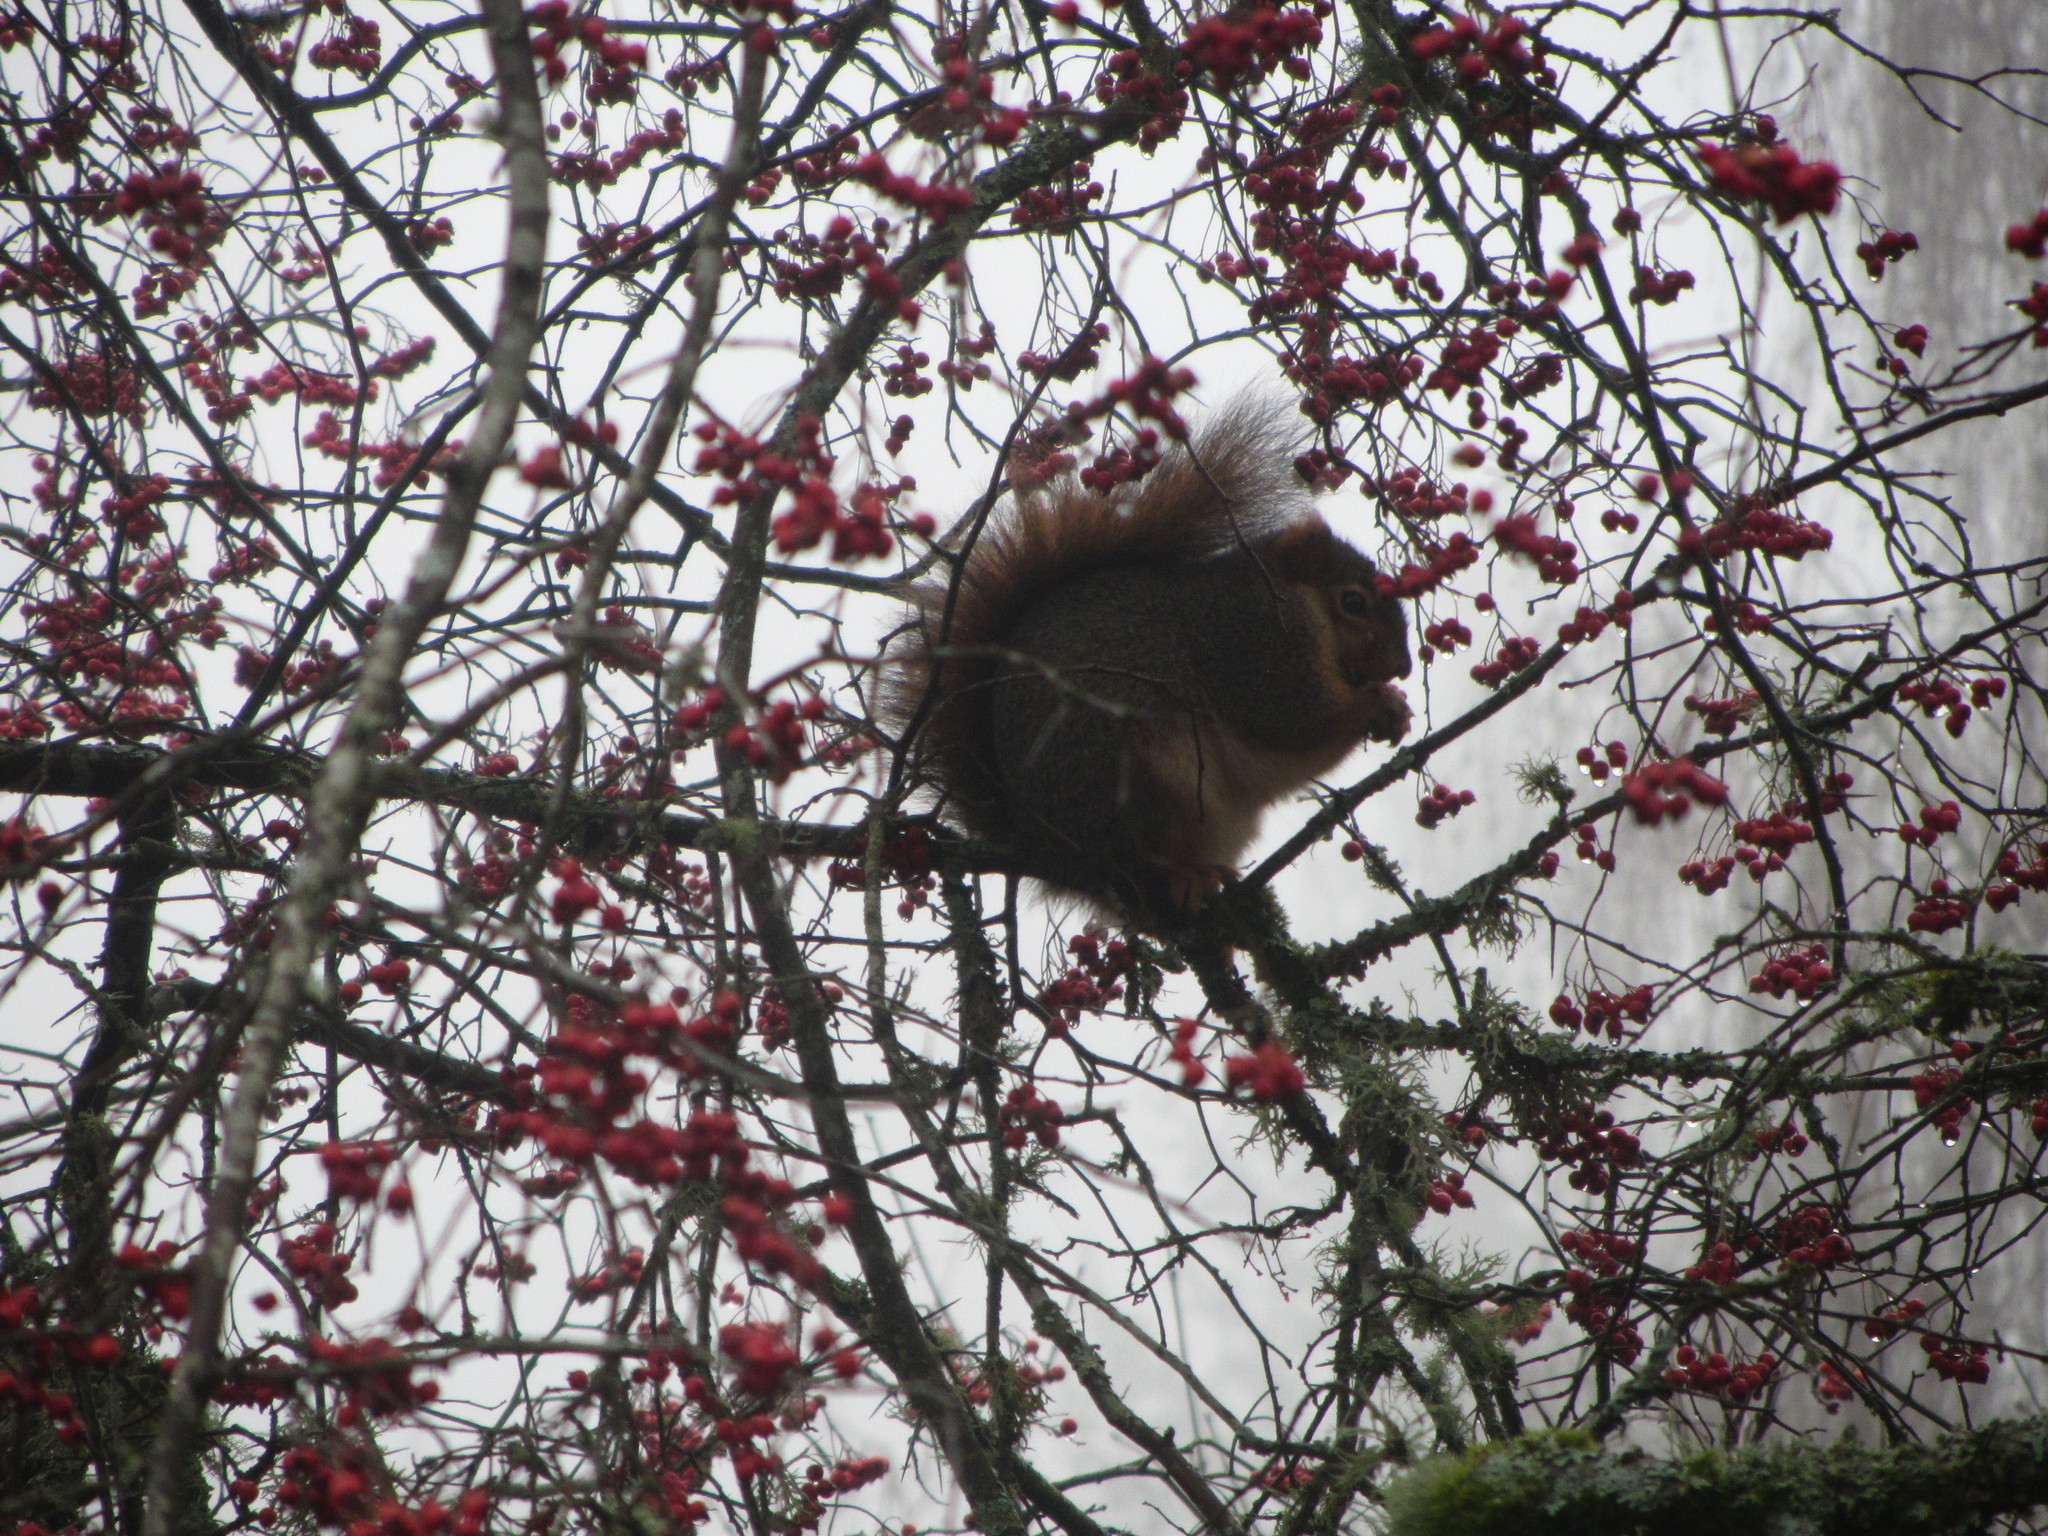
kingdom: Animalia
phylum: Chordata
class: Mammalia
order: Rodentia
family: Sciuridae
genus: Sciurus
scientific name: Sciurus carolinensis
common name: Eastern gray squirrel
